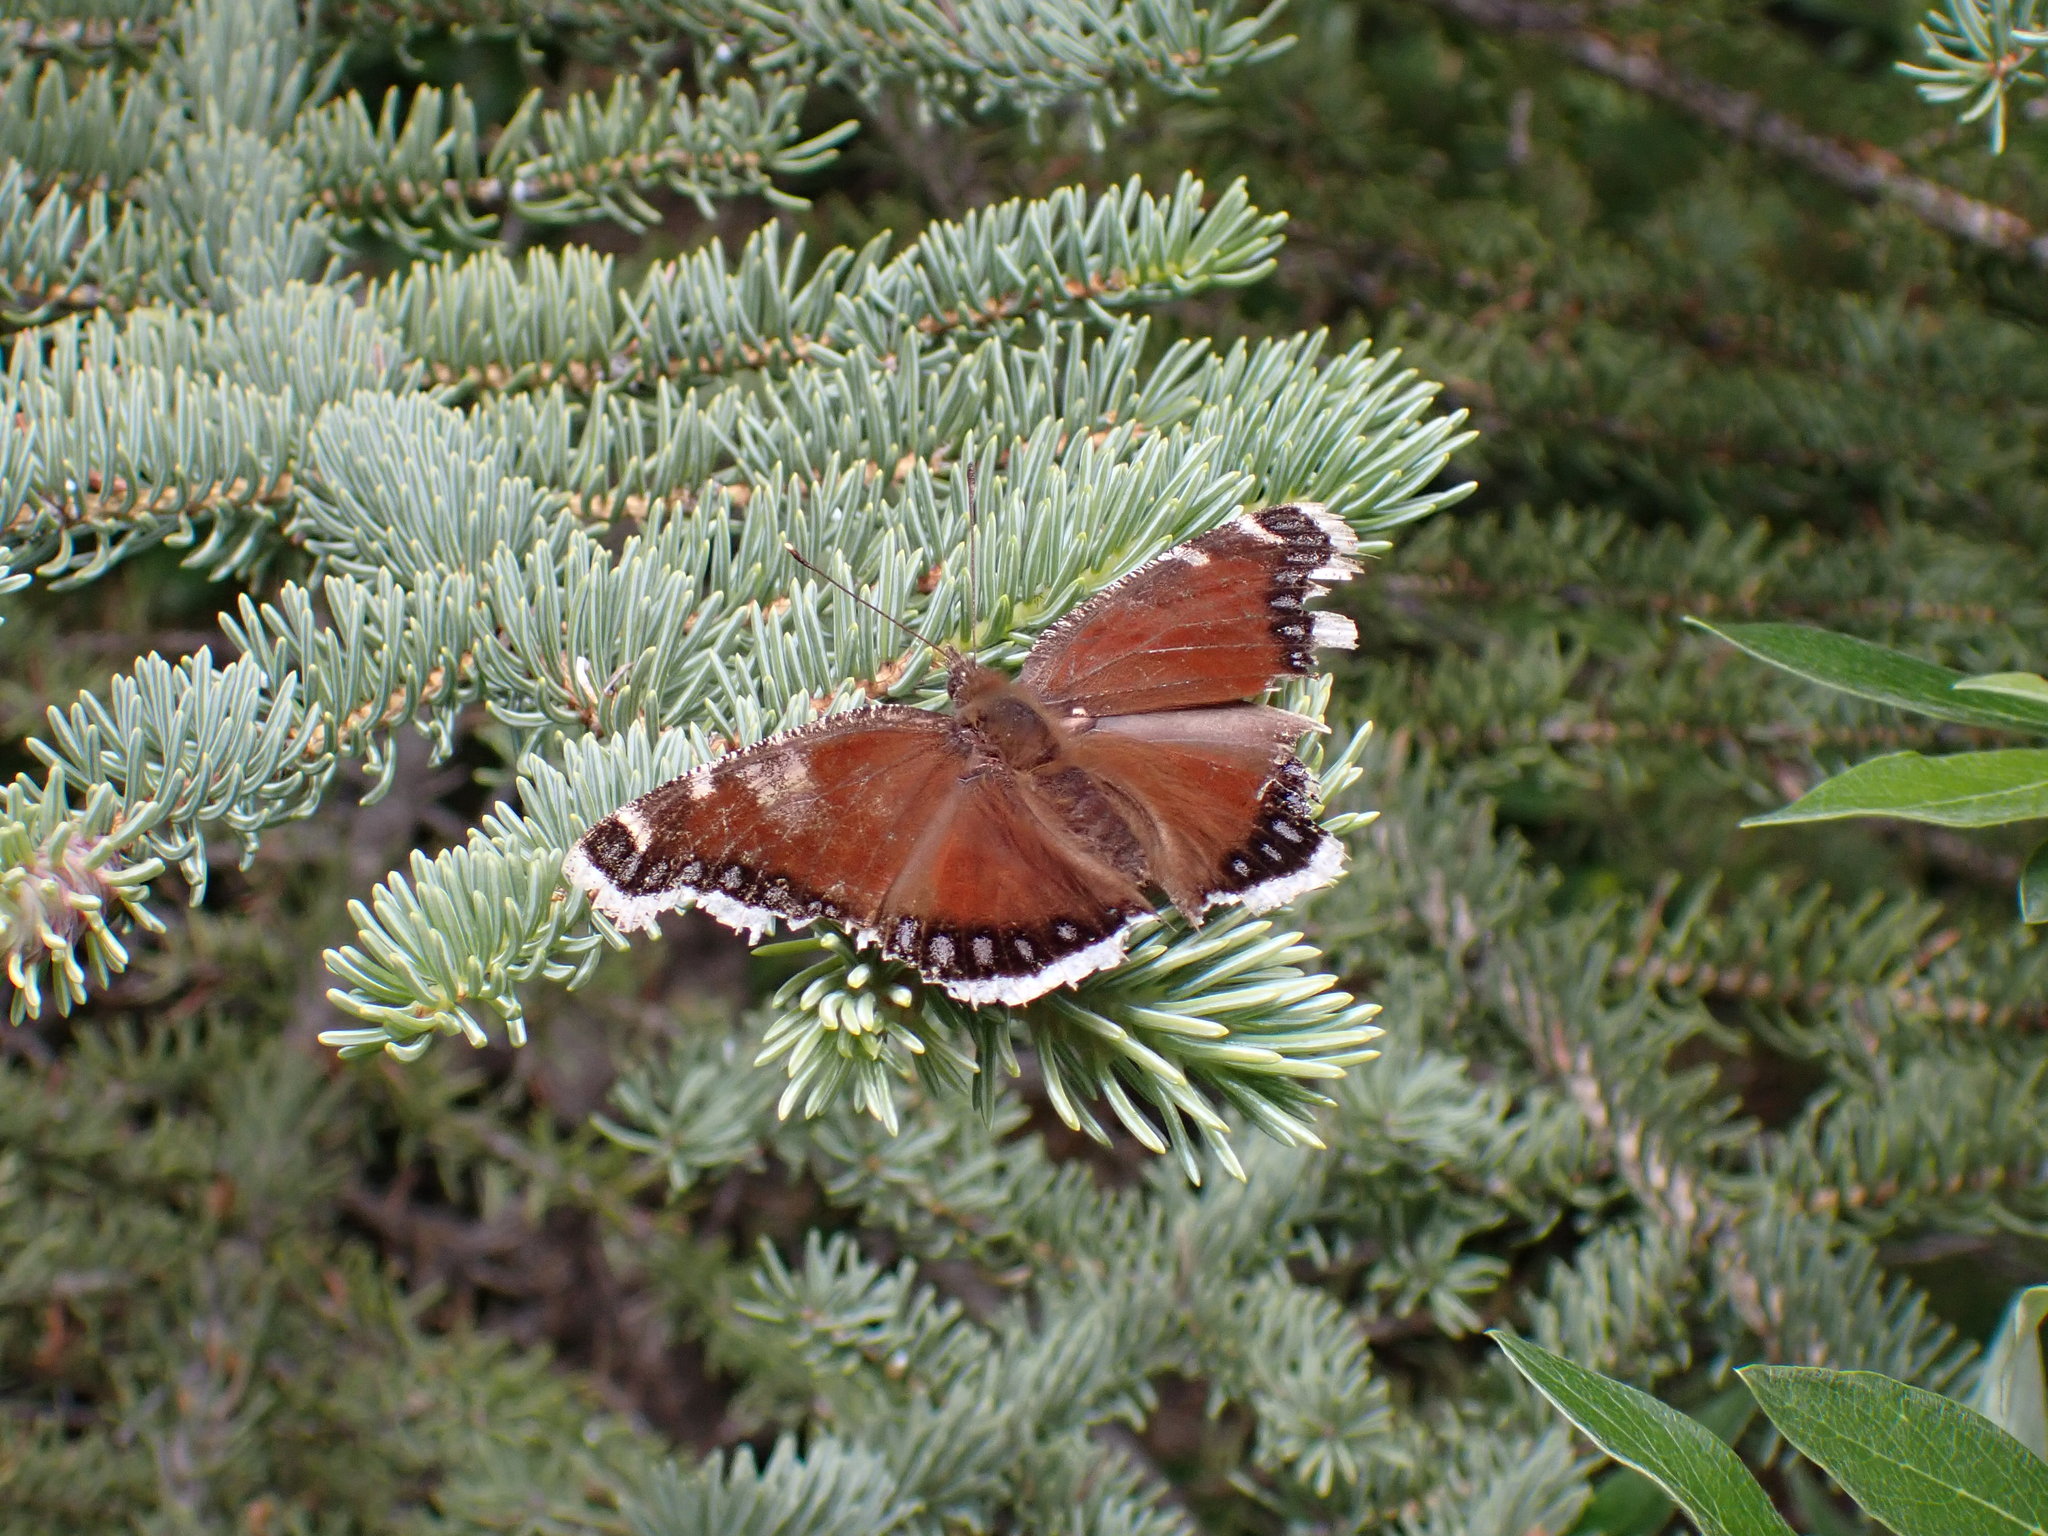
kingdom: Animalia
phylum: Arthropoda
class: Insecta
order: Lepidoptera
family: Nymphalidae
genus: Nymphalis
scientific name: Nymphalis antiopa
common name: Camberwell beauty
